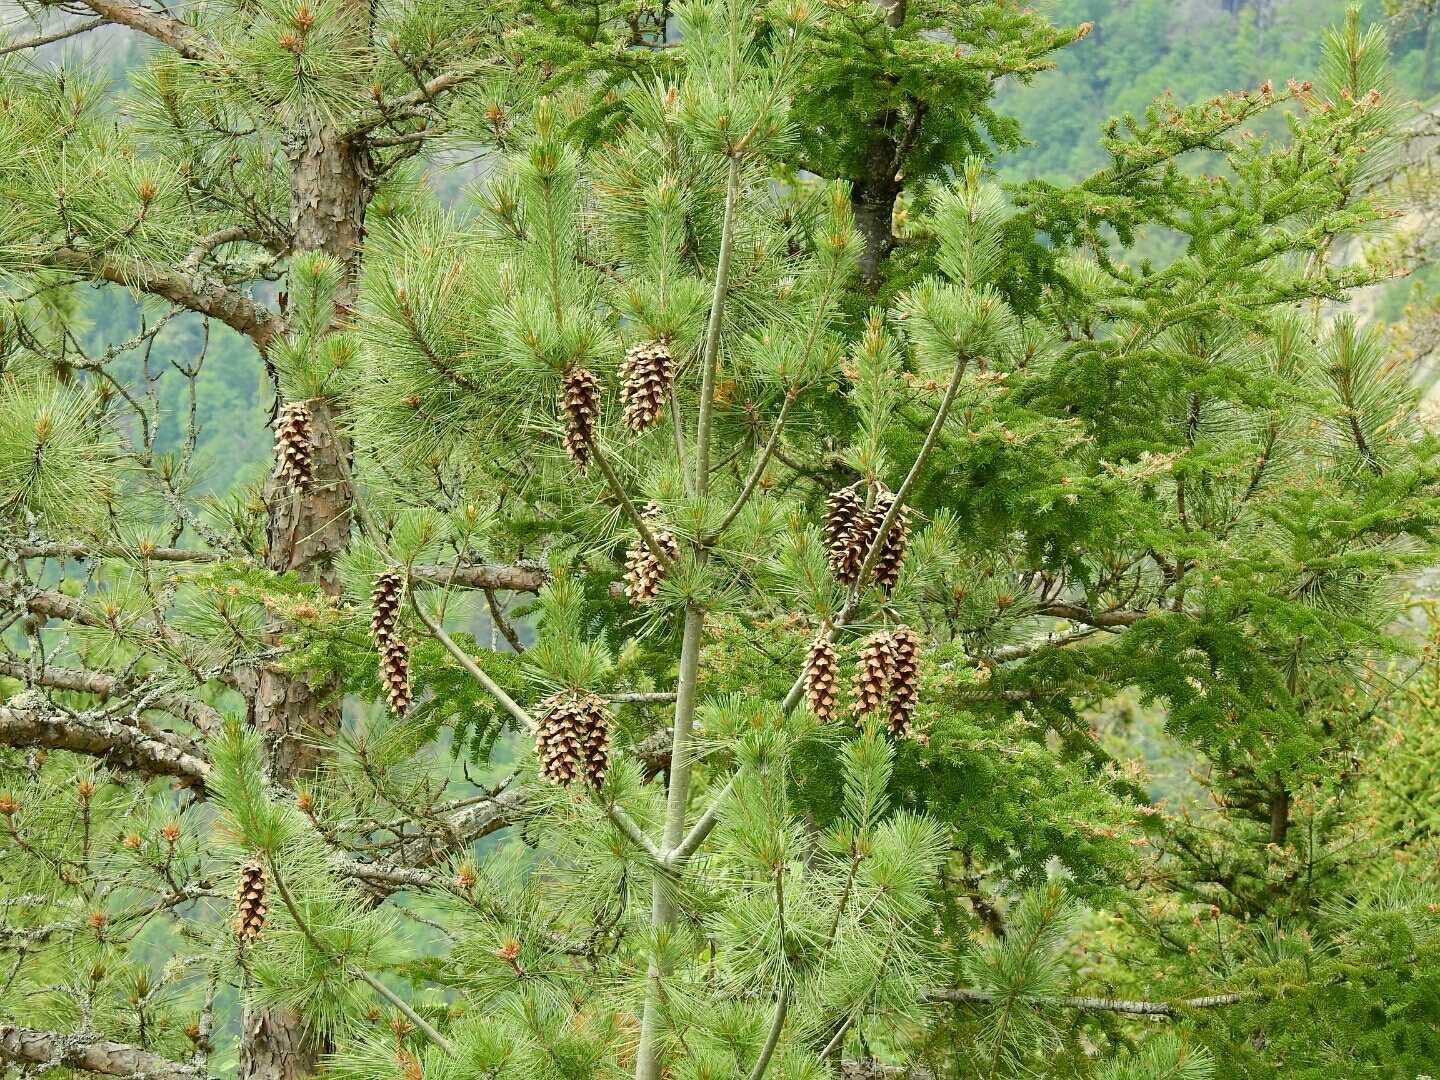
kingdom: Plantae
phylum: Tracheophyta
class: Pinopsida
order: Pinales
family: Pinaceae
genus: Pinus
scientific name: Pinus strobus
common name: Weymouth pine
